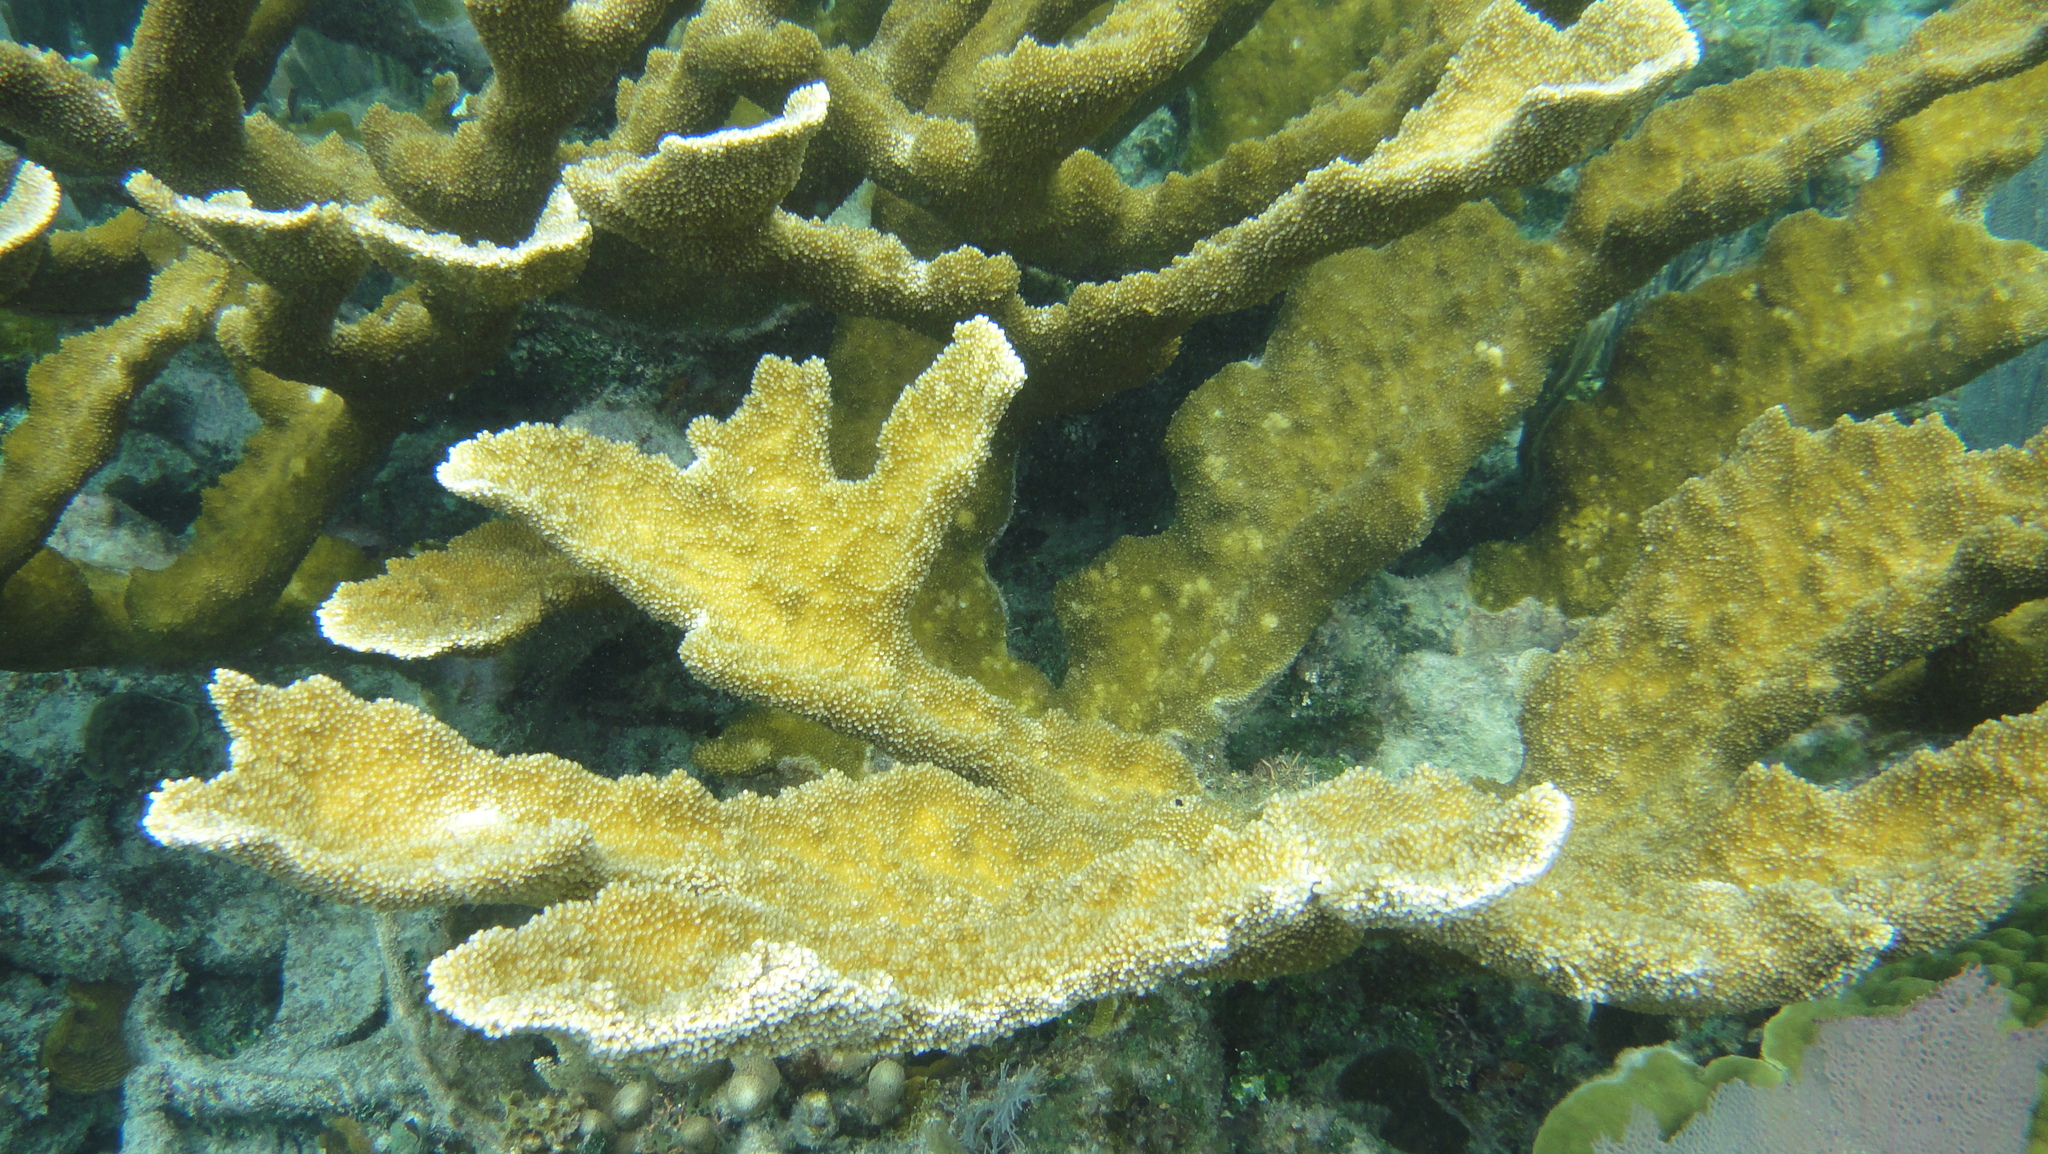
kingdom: Animalia
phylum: Cnidaria
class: Anthozoa
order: Scleractinia
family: Acroporidae
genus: Acropora
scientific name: Acropora palmata
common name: Elkhorn coral
